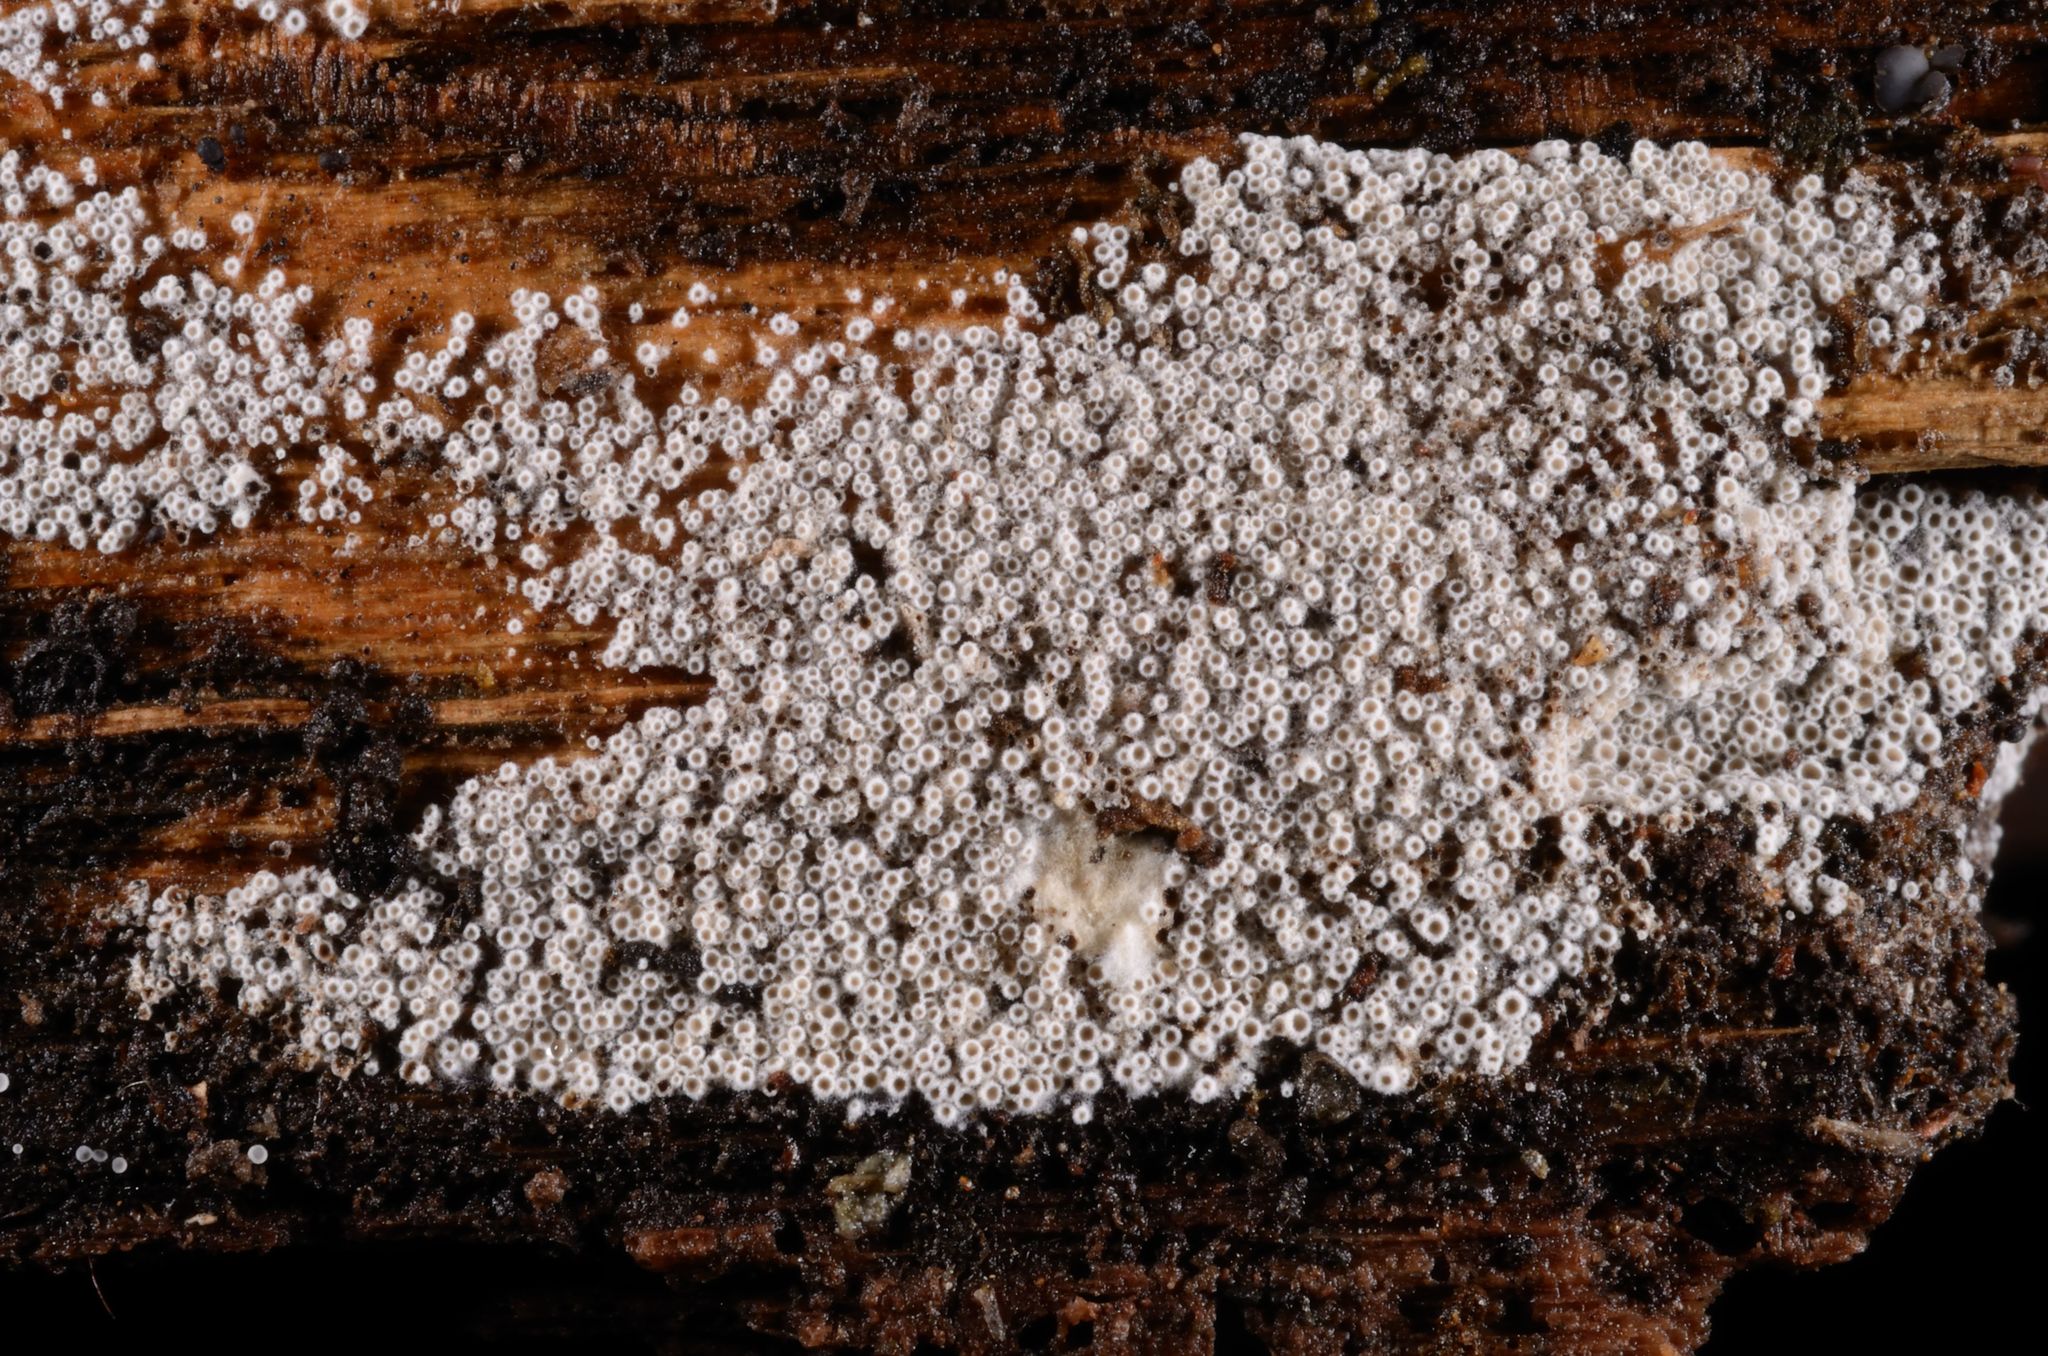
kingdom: Fungi
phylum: Ascomycota
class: Leotiomycetes
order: Helotiales
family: Arachnopezizaceae
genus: Eriopezia
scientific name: Eriopezia caesia
